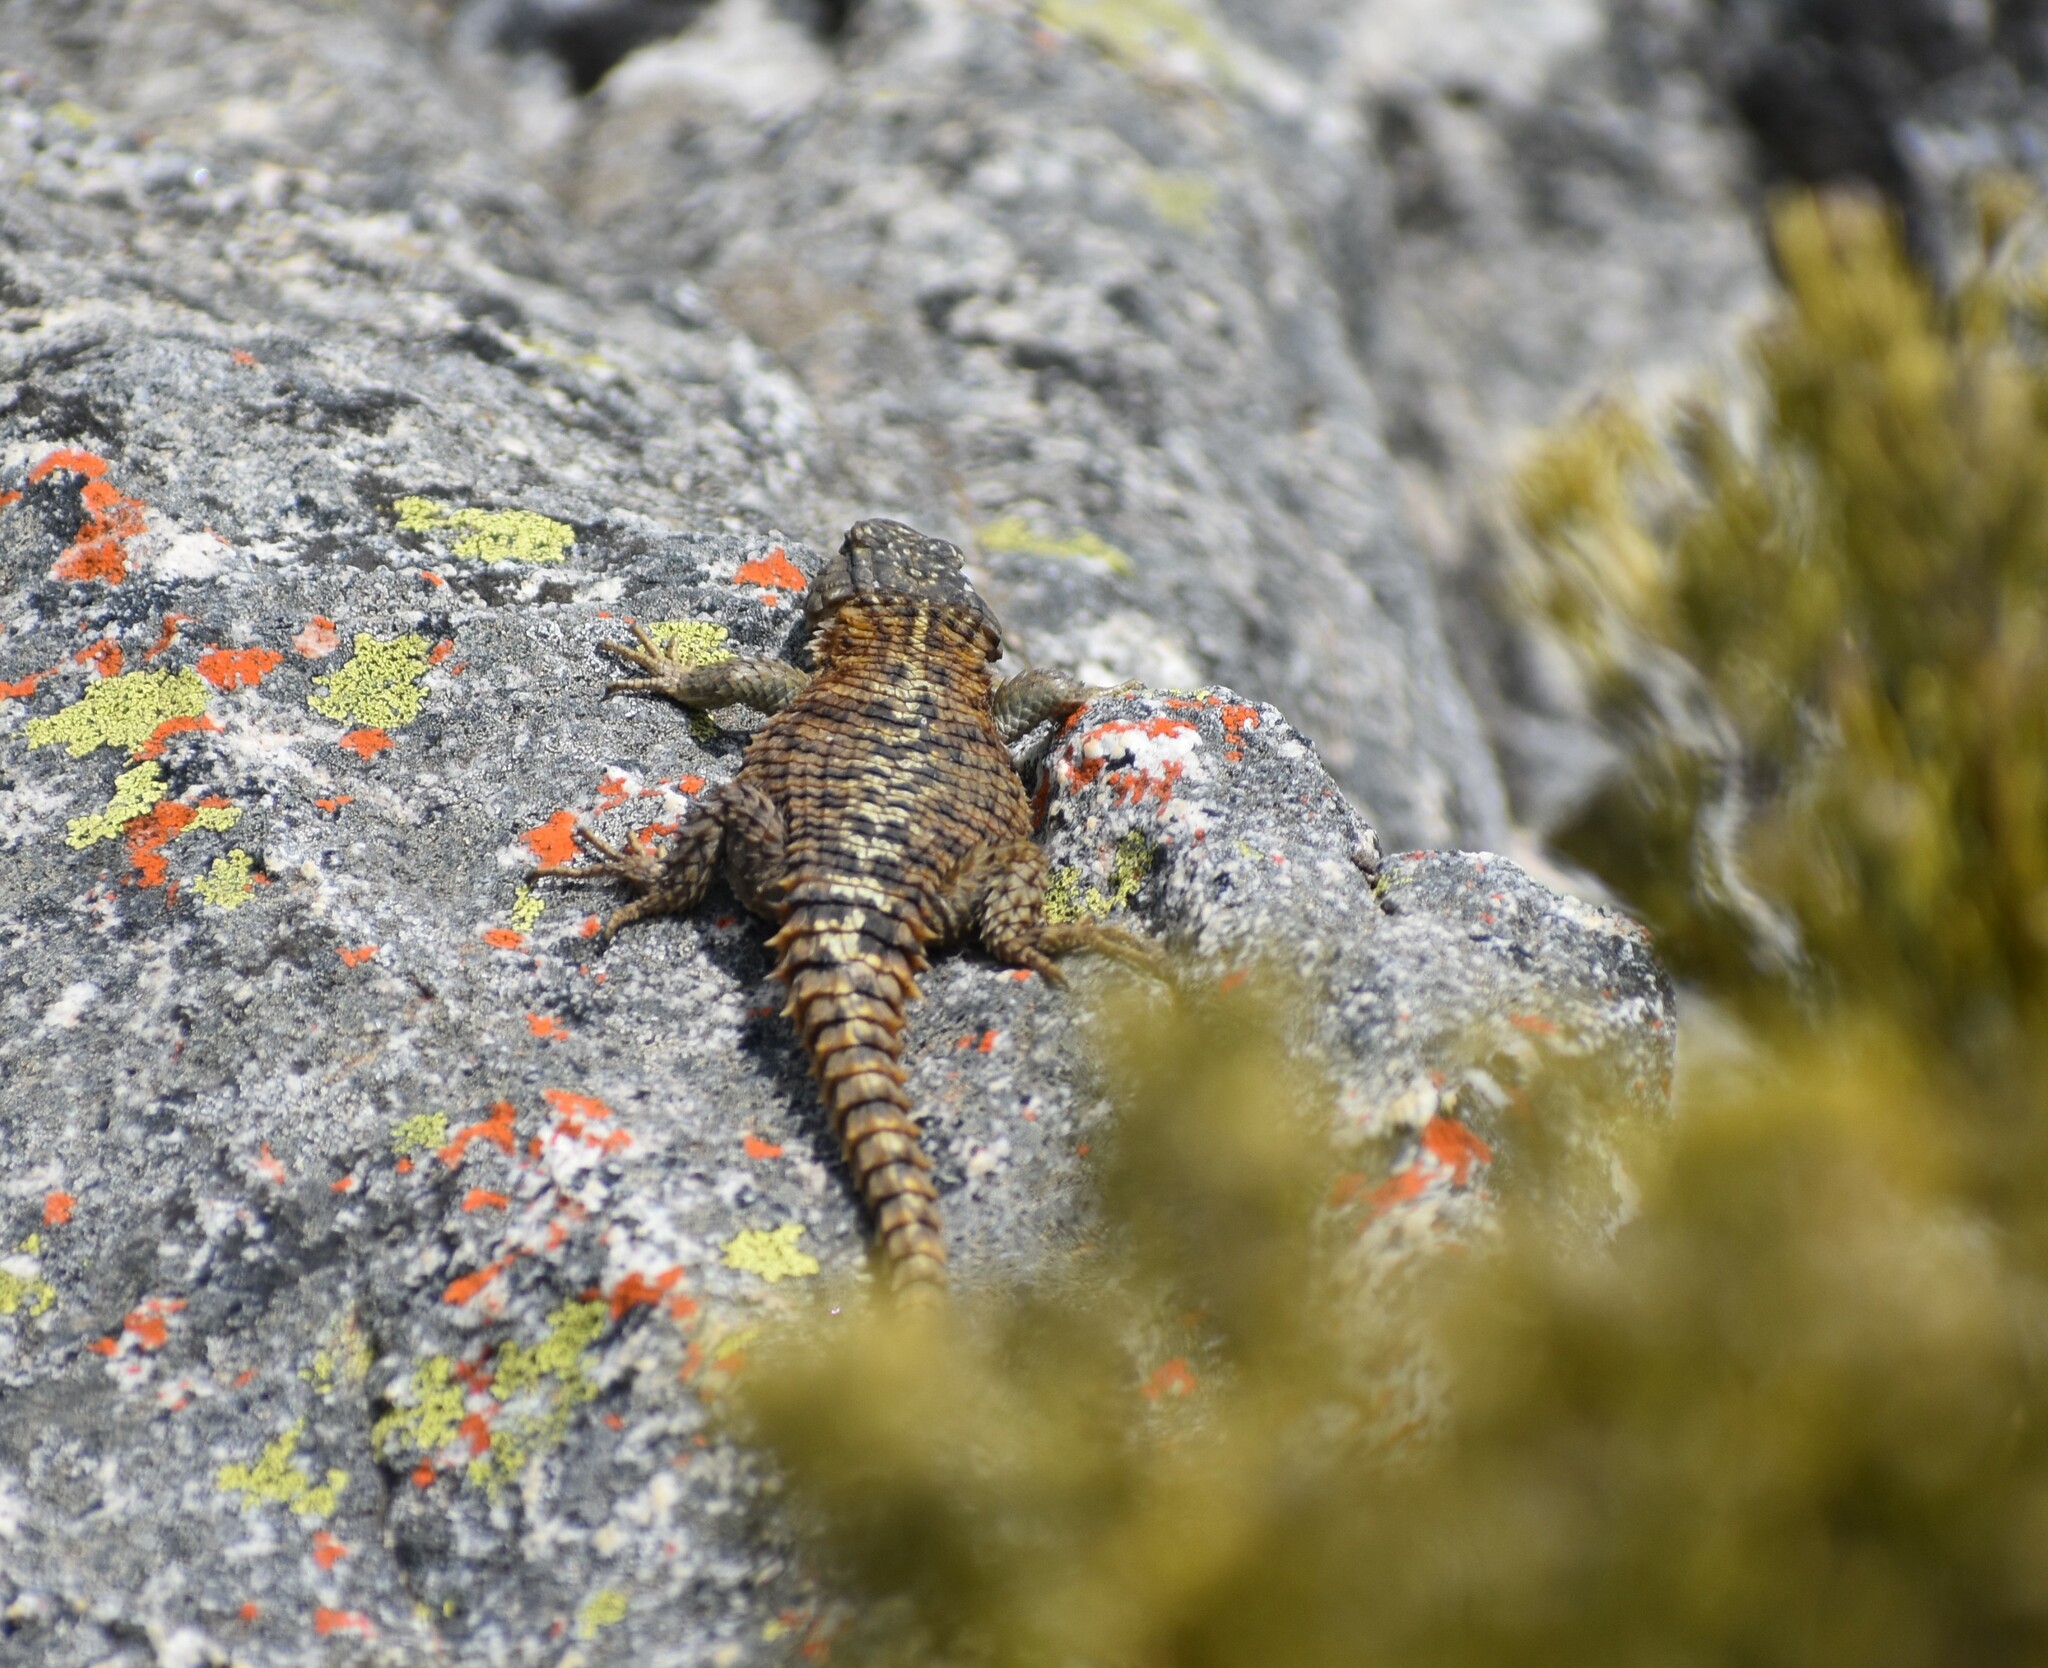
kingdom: Animalia
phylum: Chordata
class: Squamata
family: Cordylidae
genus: Cordylus
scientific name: Cordylus cordylus
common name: Cape girdled lizard
